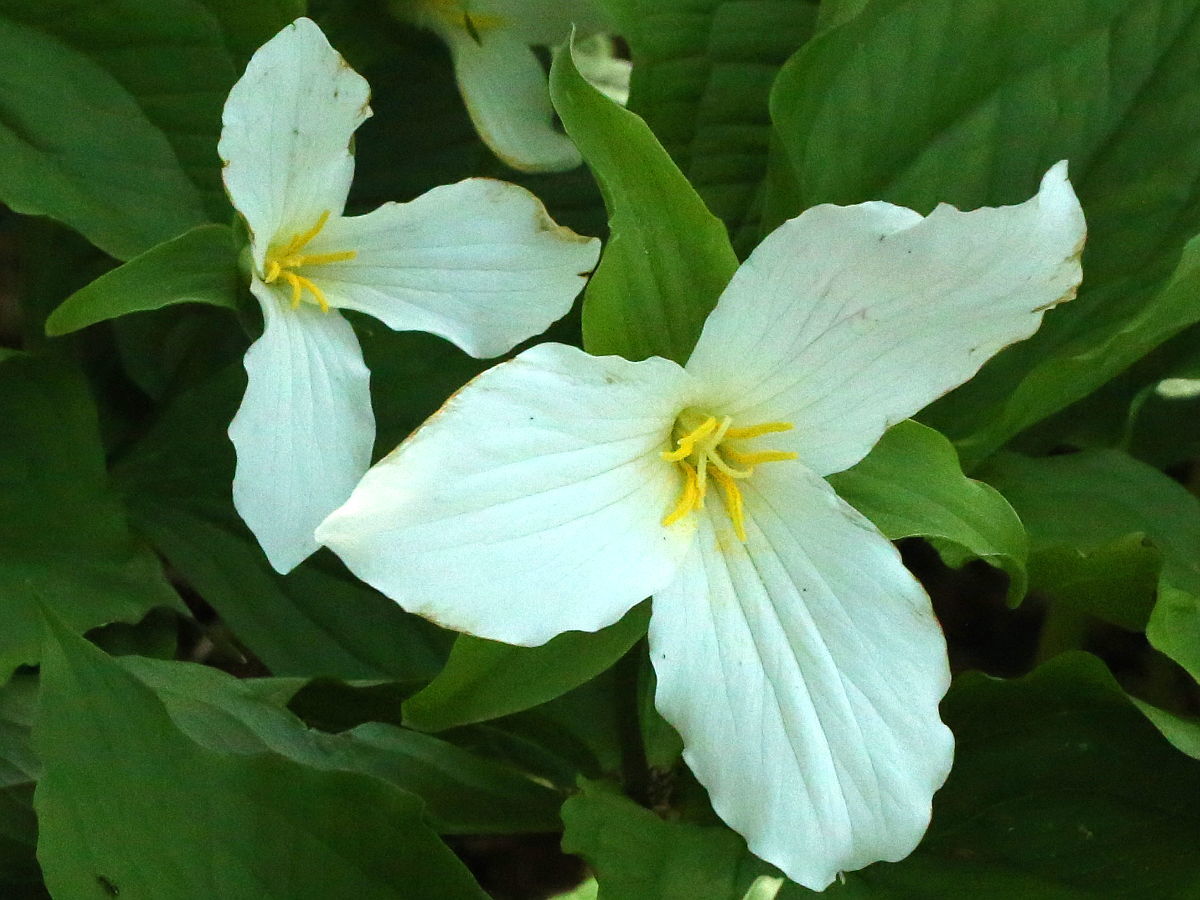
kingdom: Plantae
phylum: Tracheophyta
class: Liliopsida
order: Liliales
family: Melanthiaceae
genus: Trillium
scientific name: Trillium grandiflorum
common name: Great white trillium
